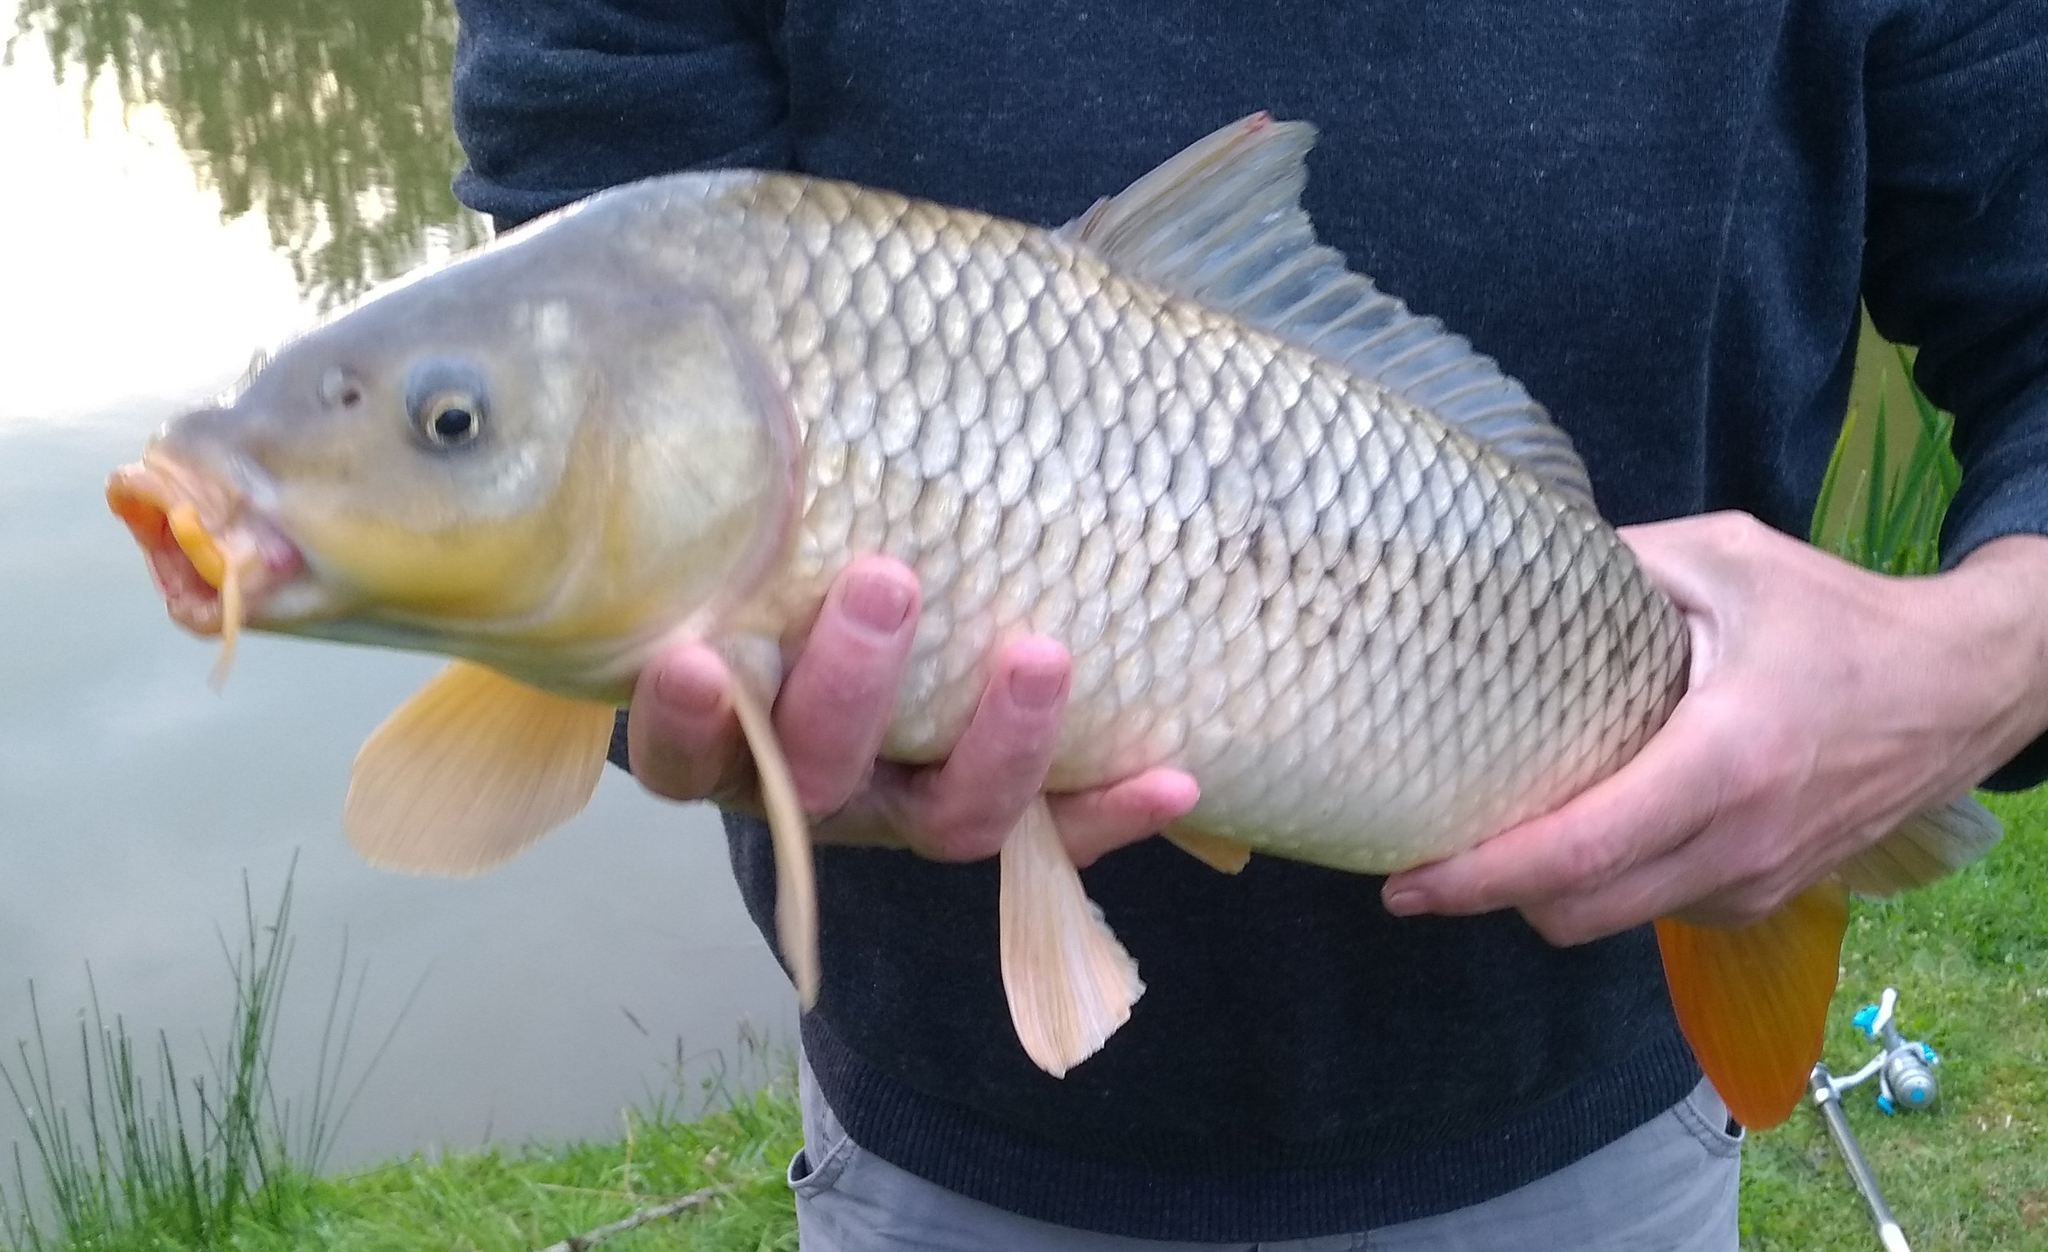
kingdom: Animalia
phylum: Chordata
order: Cypriniformes
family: Cyprinidae
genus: Cyprinus
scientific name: Cyprinus carpio
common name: Common carp
